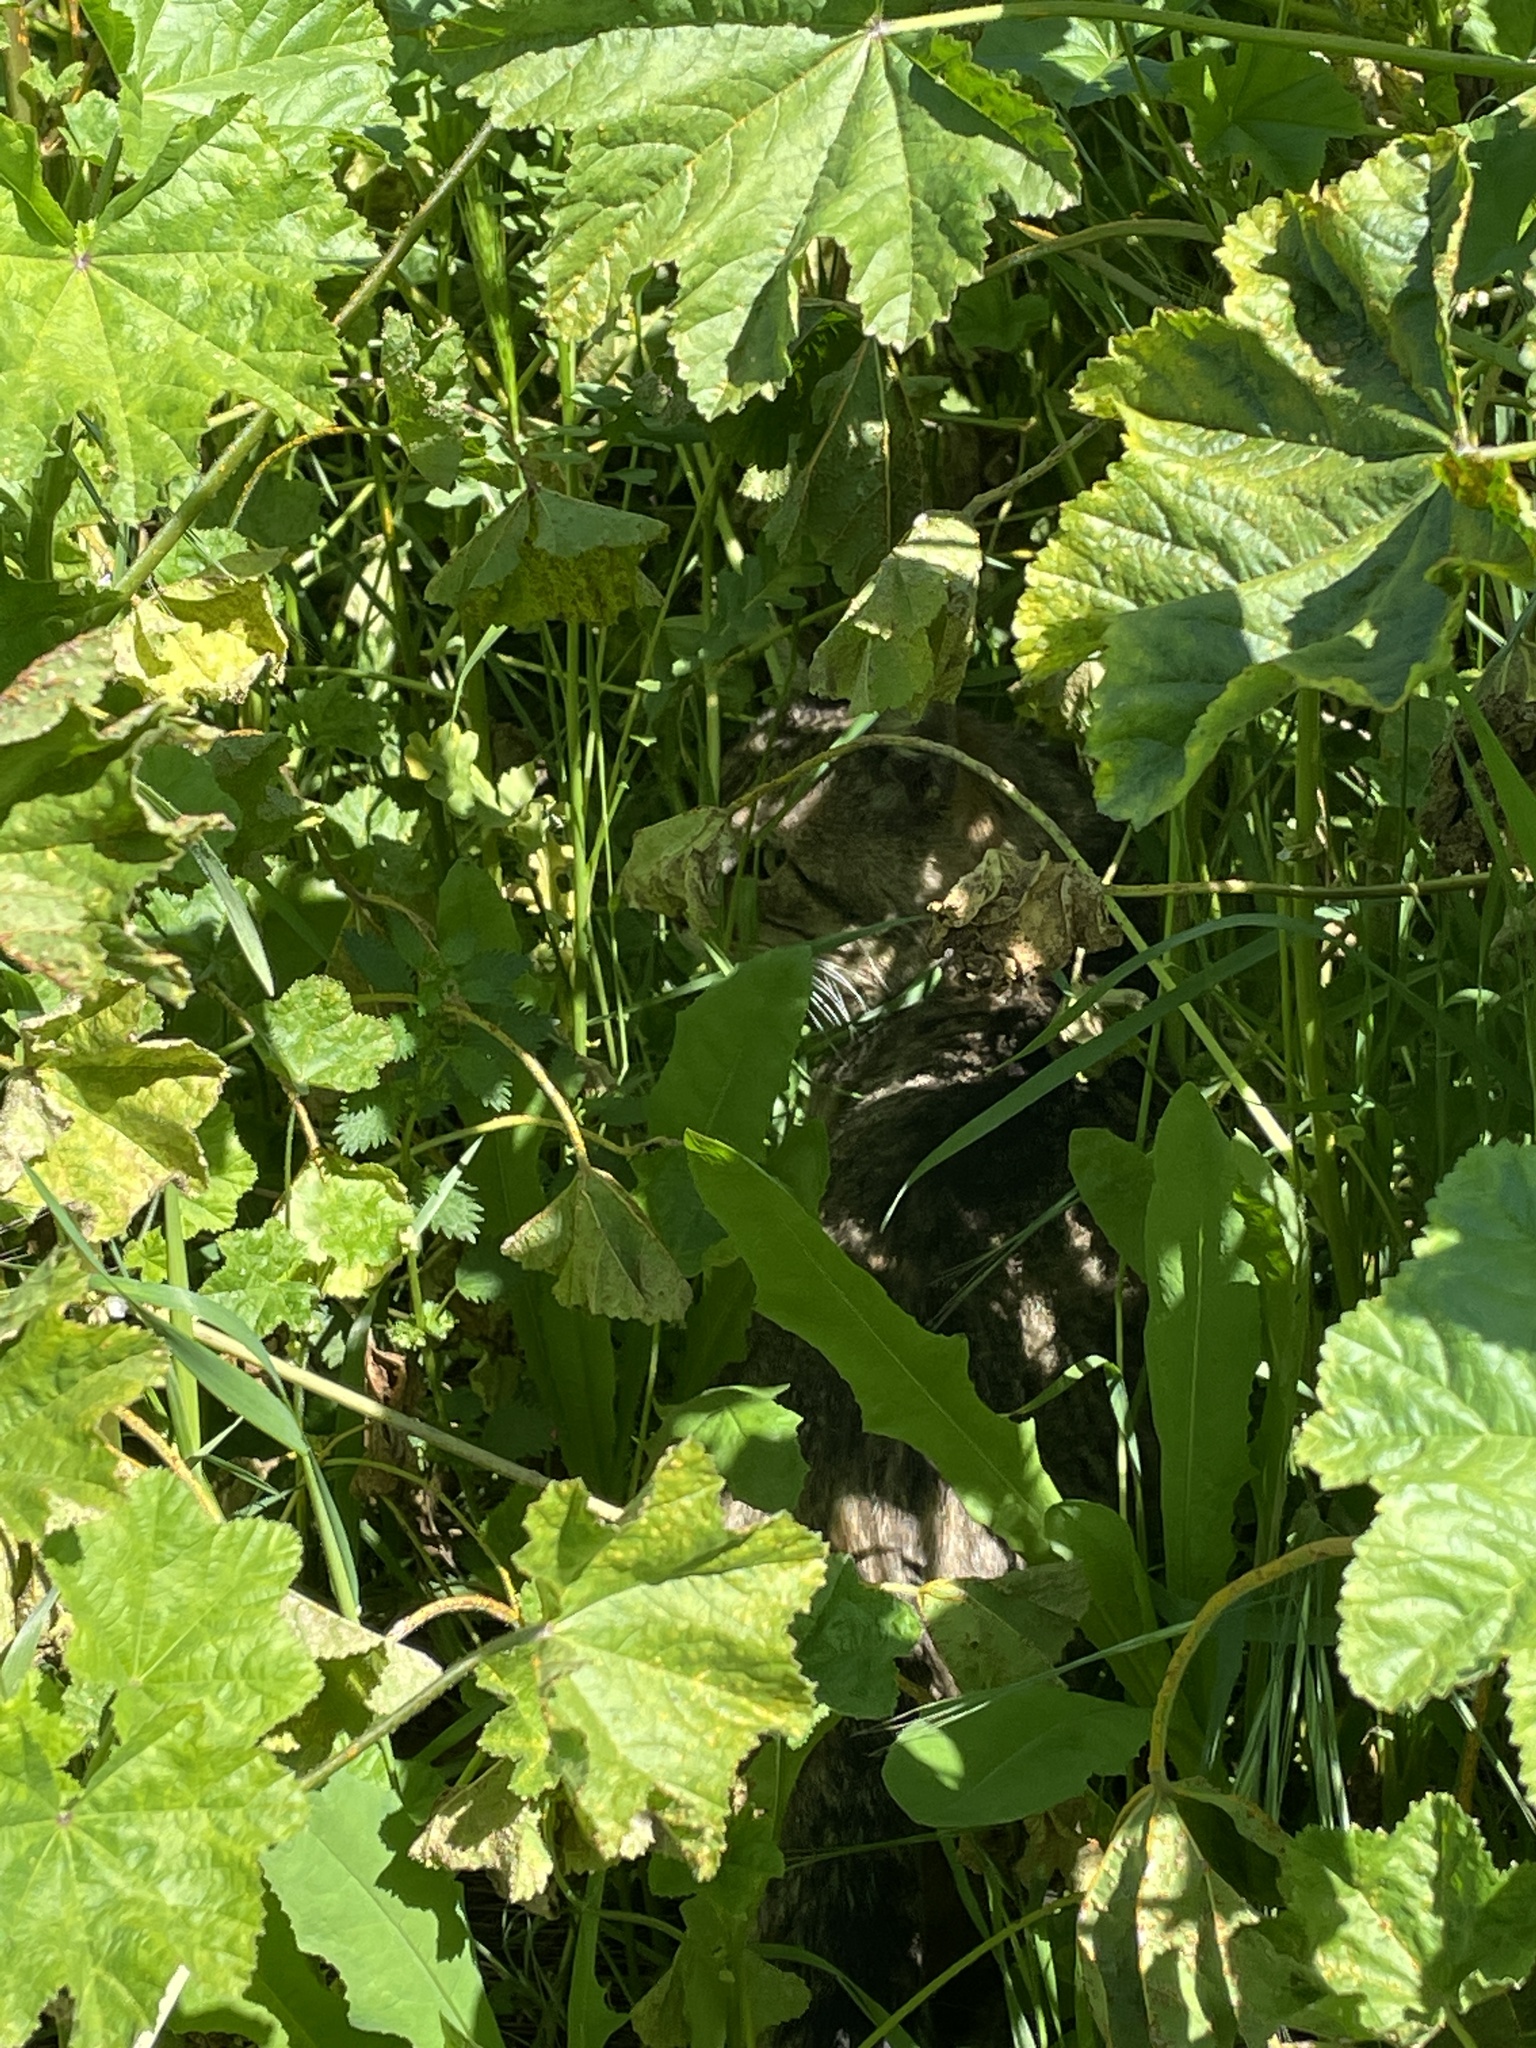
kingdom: Animalia
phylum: Chordata
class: Mammalia
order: Carnivora
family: Felidae
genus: Felis
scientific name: Felis catus
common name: Domestic cat
